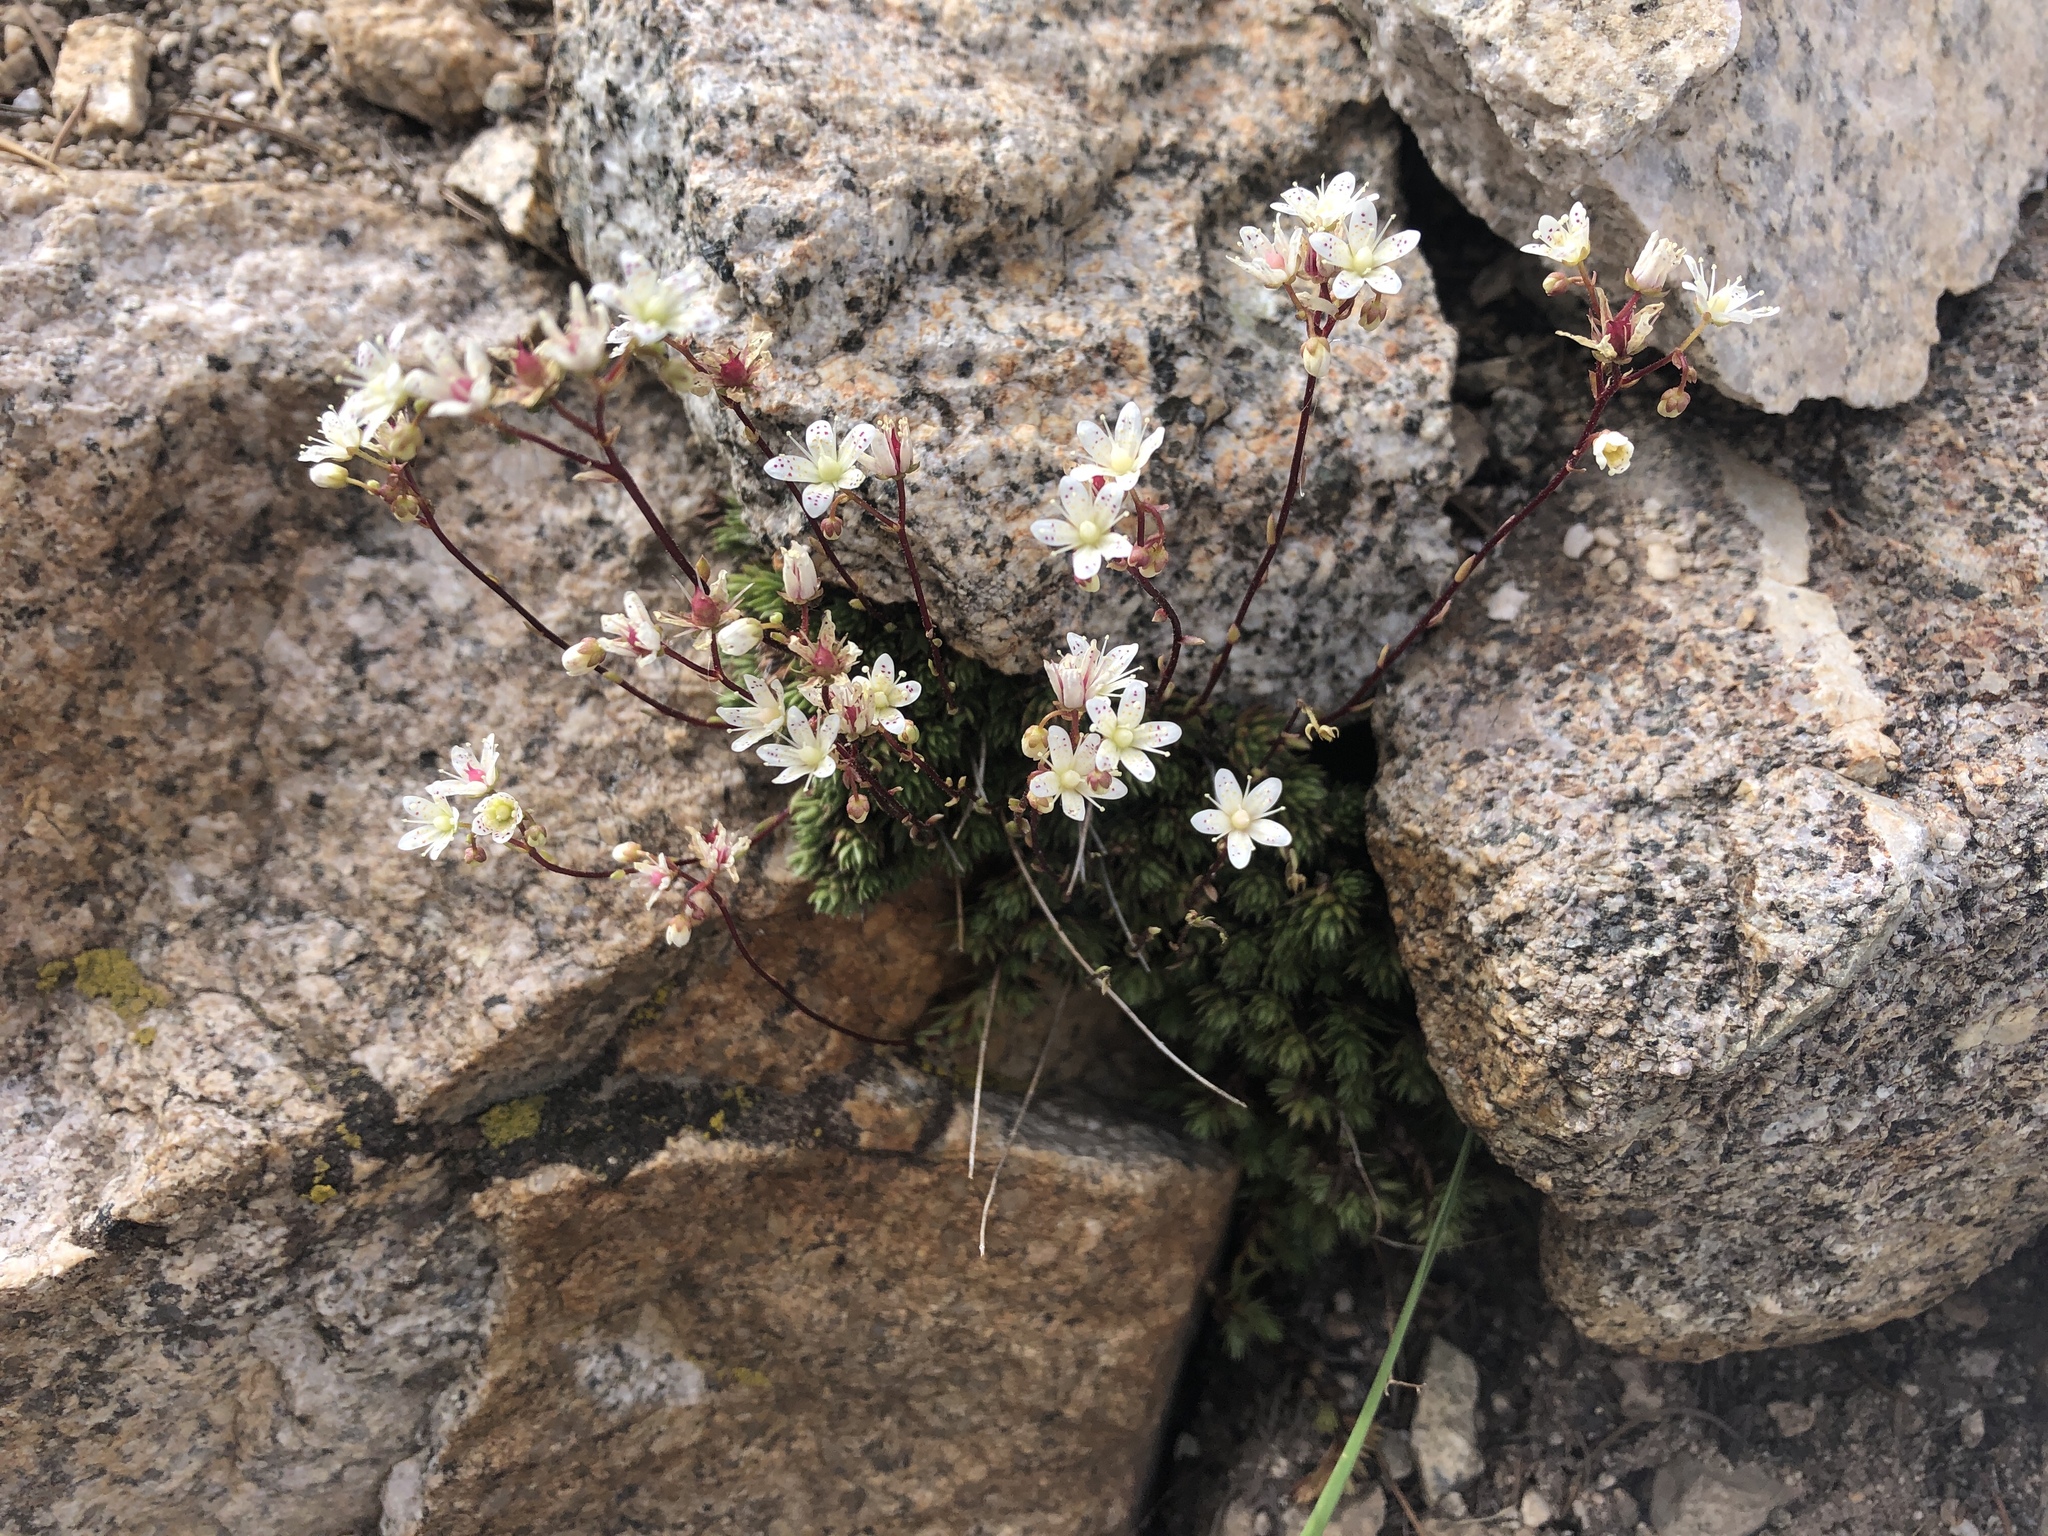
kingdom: Plantae
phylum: Tracheophyta
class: Magnoliopsida
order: Saxifragales
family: Saxifragaceae
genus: Saxifraga
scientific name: Saxifraga bronchialis
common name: Matted saxifrage
